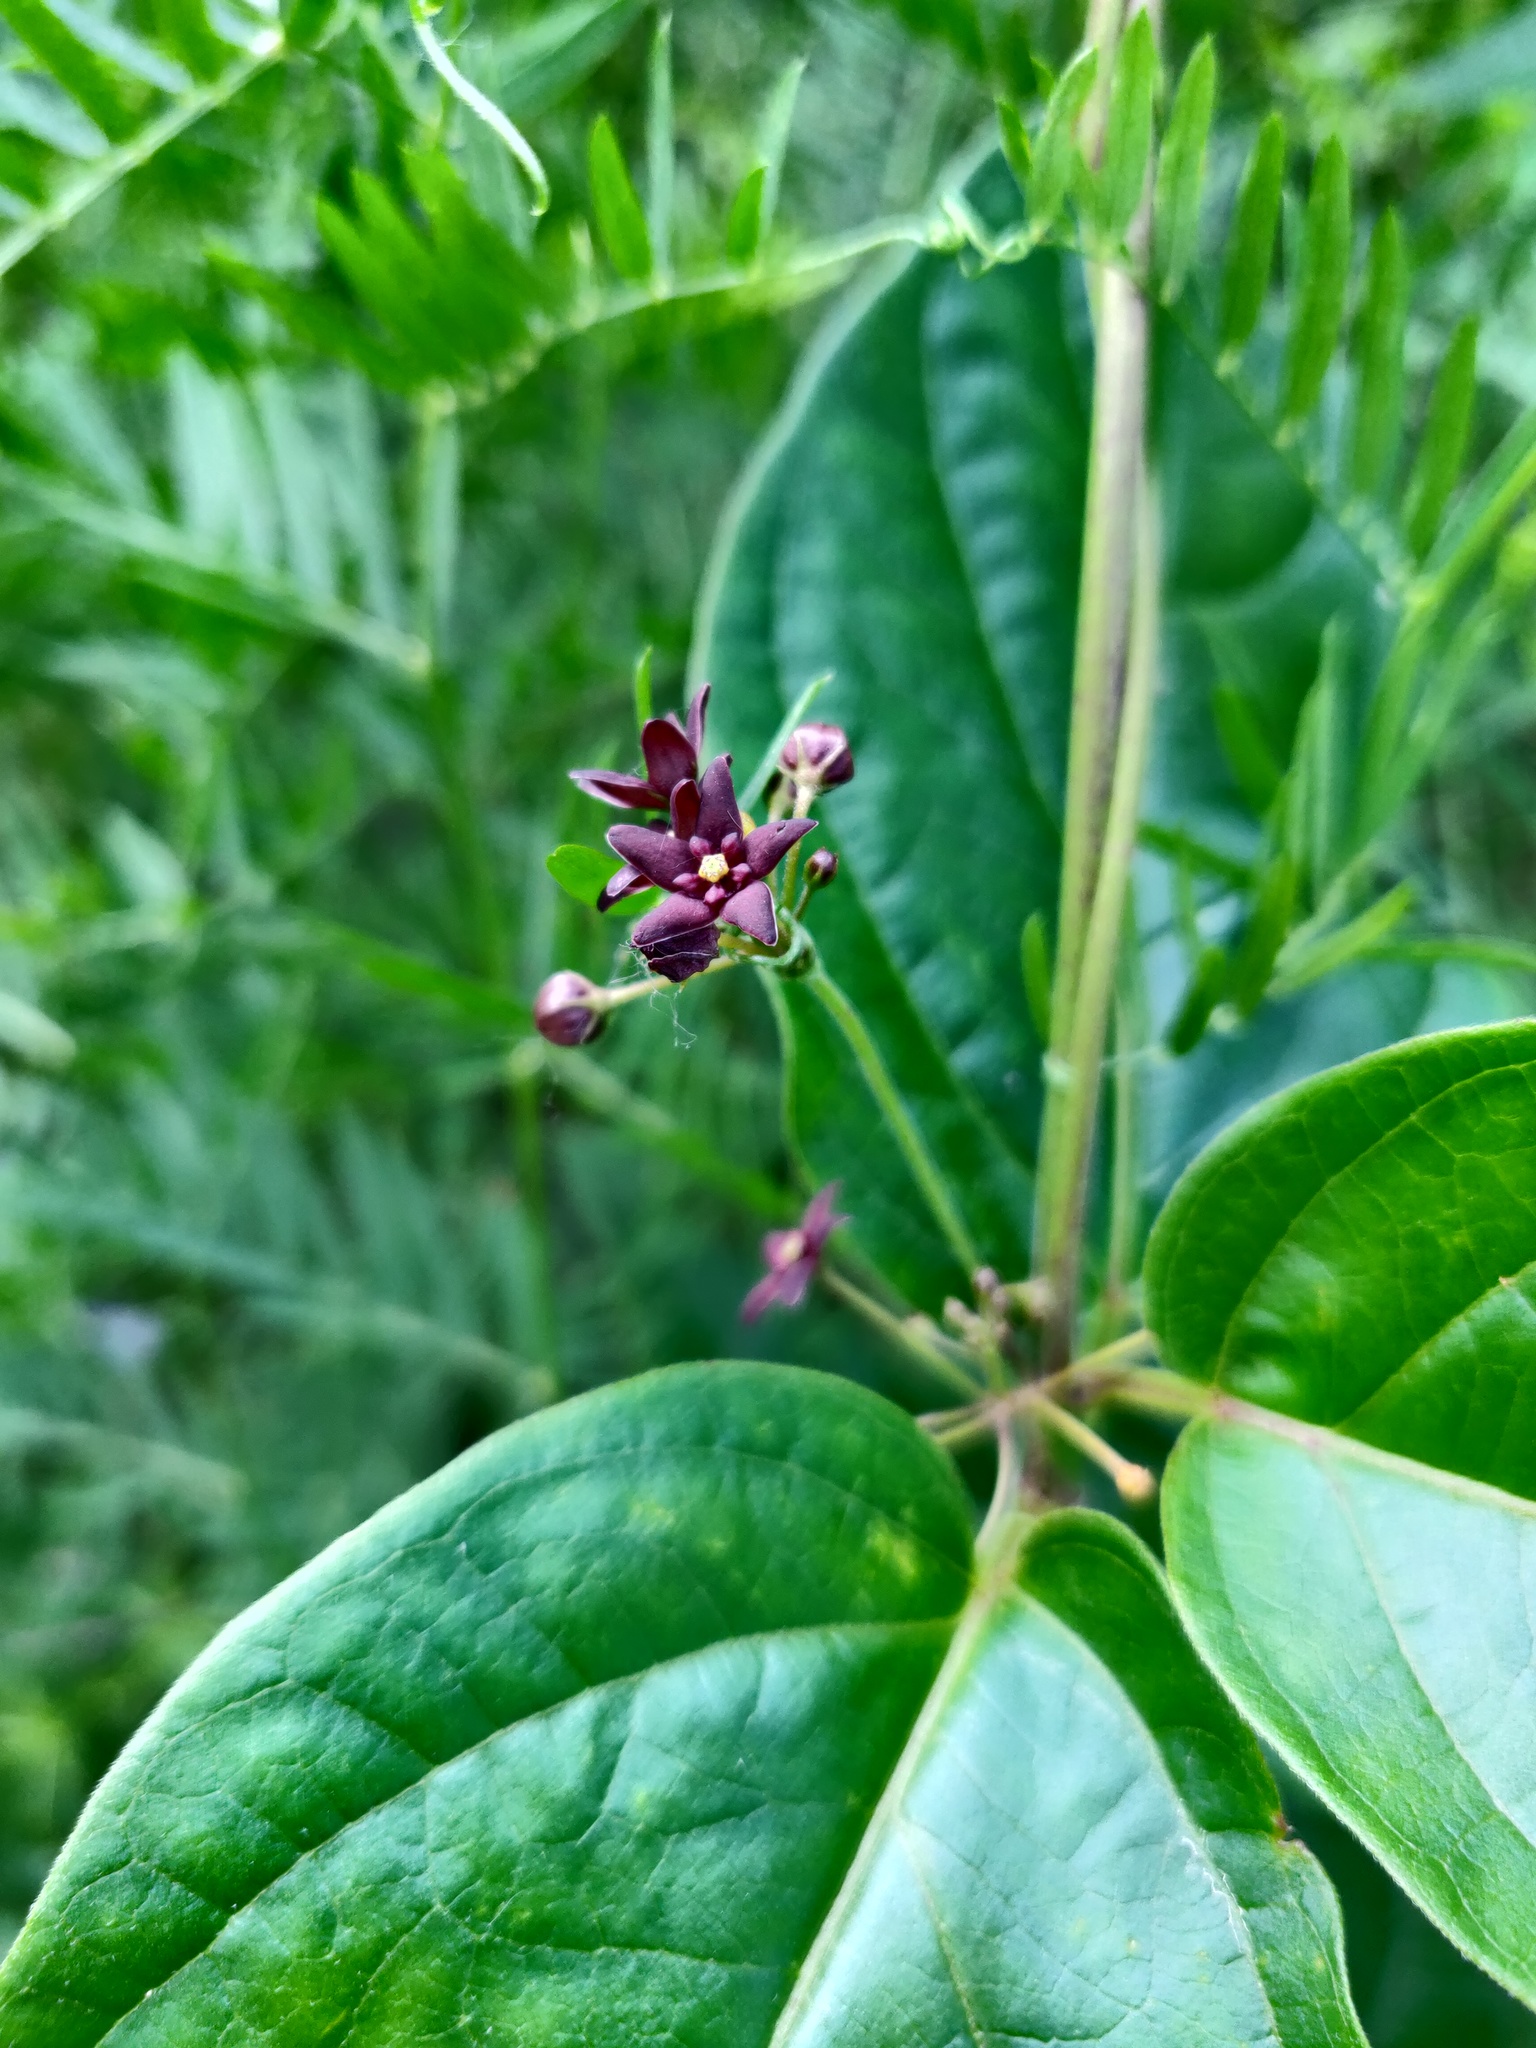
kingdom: Plantae
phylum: Tracheophyta
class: Magnoliopsida
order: Gentianales
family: Apocynaceae
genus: Vincetoxicum
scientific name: Vincetoxicum scandens
